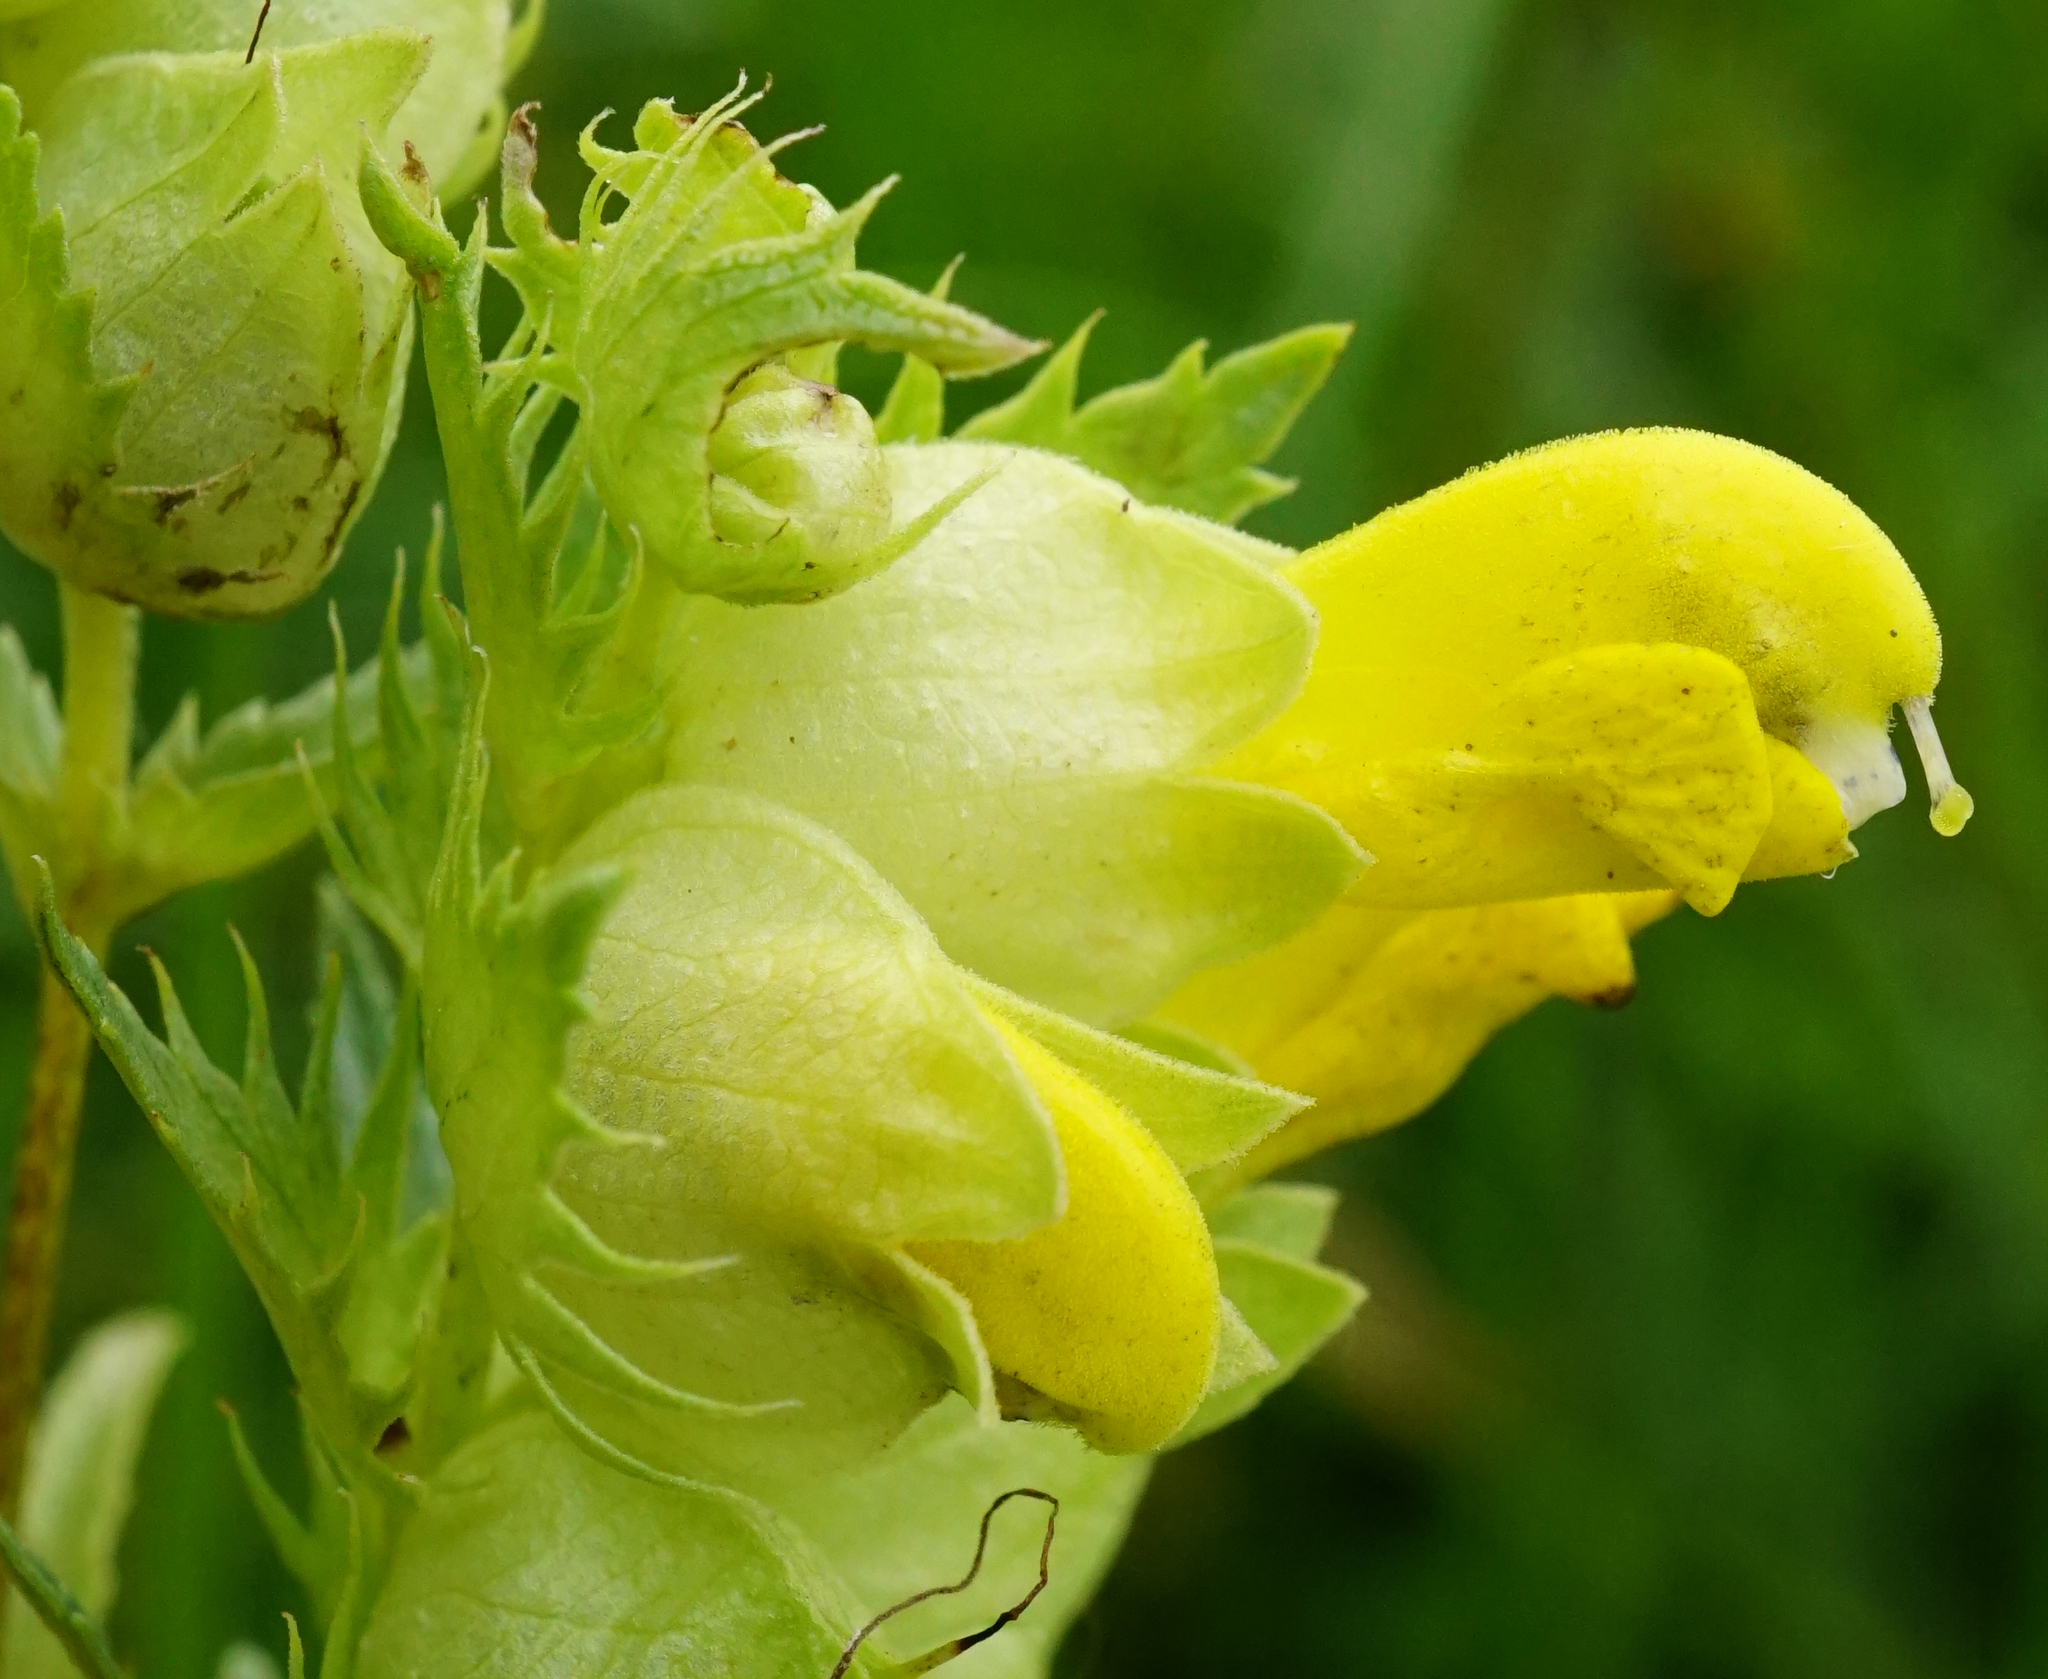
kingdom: Plantae
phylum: Tracheophyta
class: Magnoliopsida
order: Lamiales
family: Orobanchaceae
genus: Rhinanthus
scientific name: Rhinanthus serotinus
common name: Late-flowering yellow rattle
